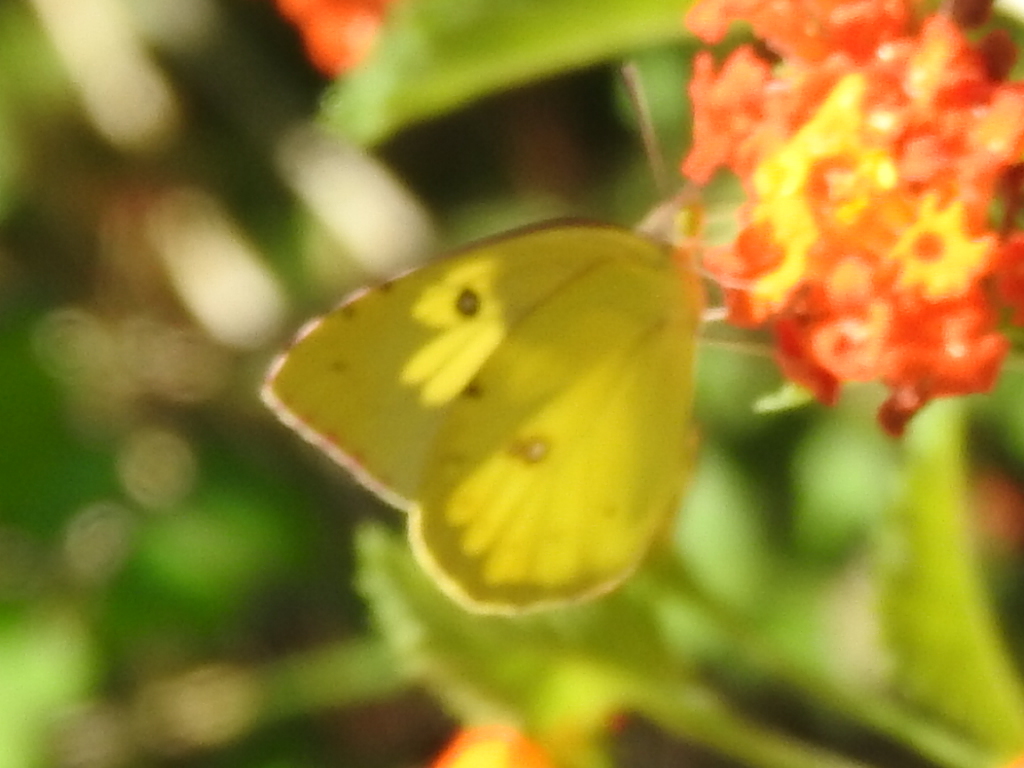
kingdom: Animalia
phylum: Arthropoda
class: Insecta
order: Lepidoptera
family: Pieridae
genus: Zerene
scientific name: Zerene cesonia
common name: Southern dogface
